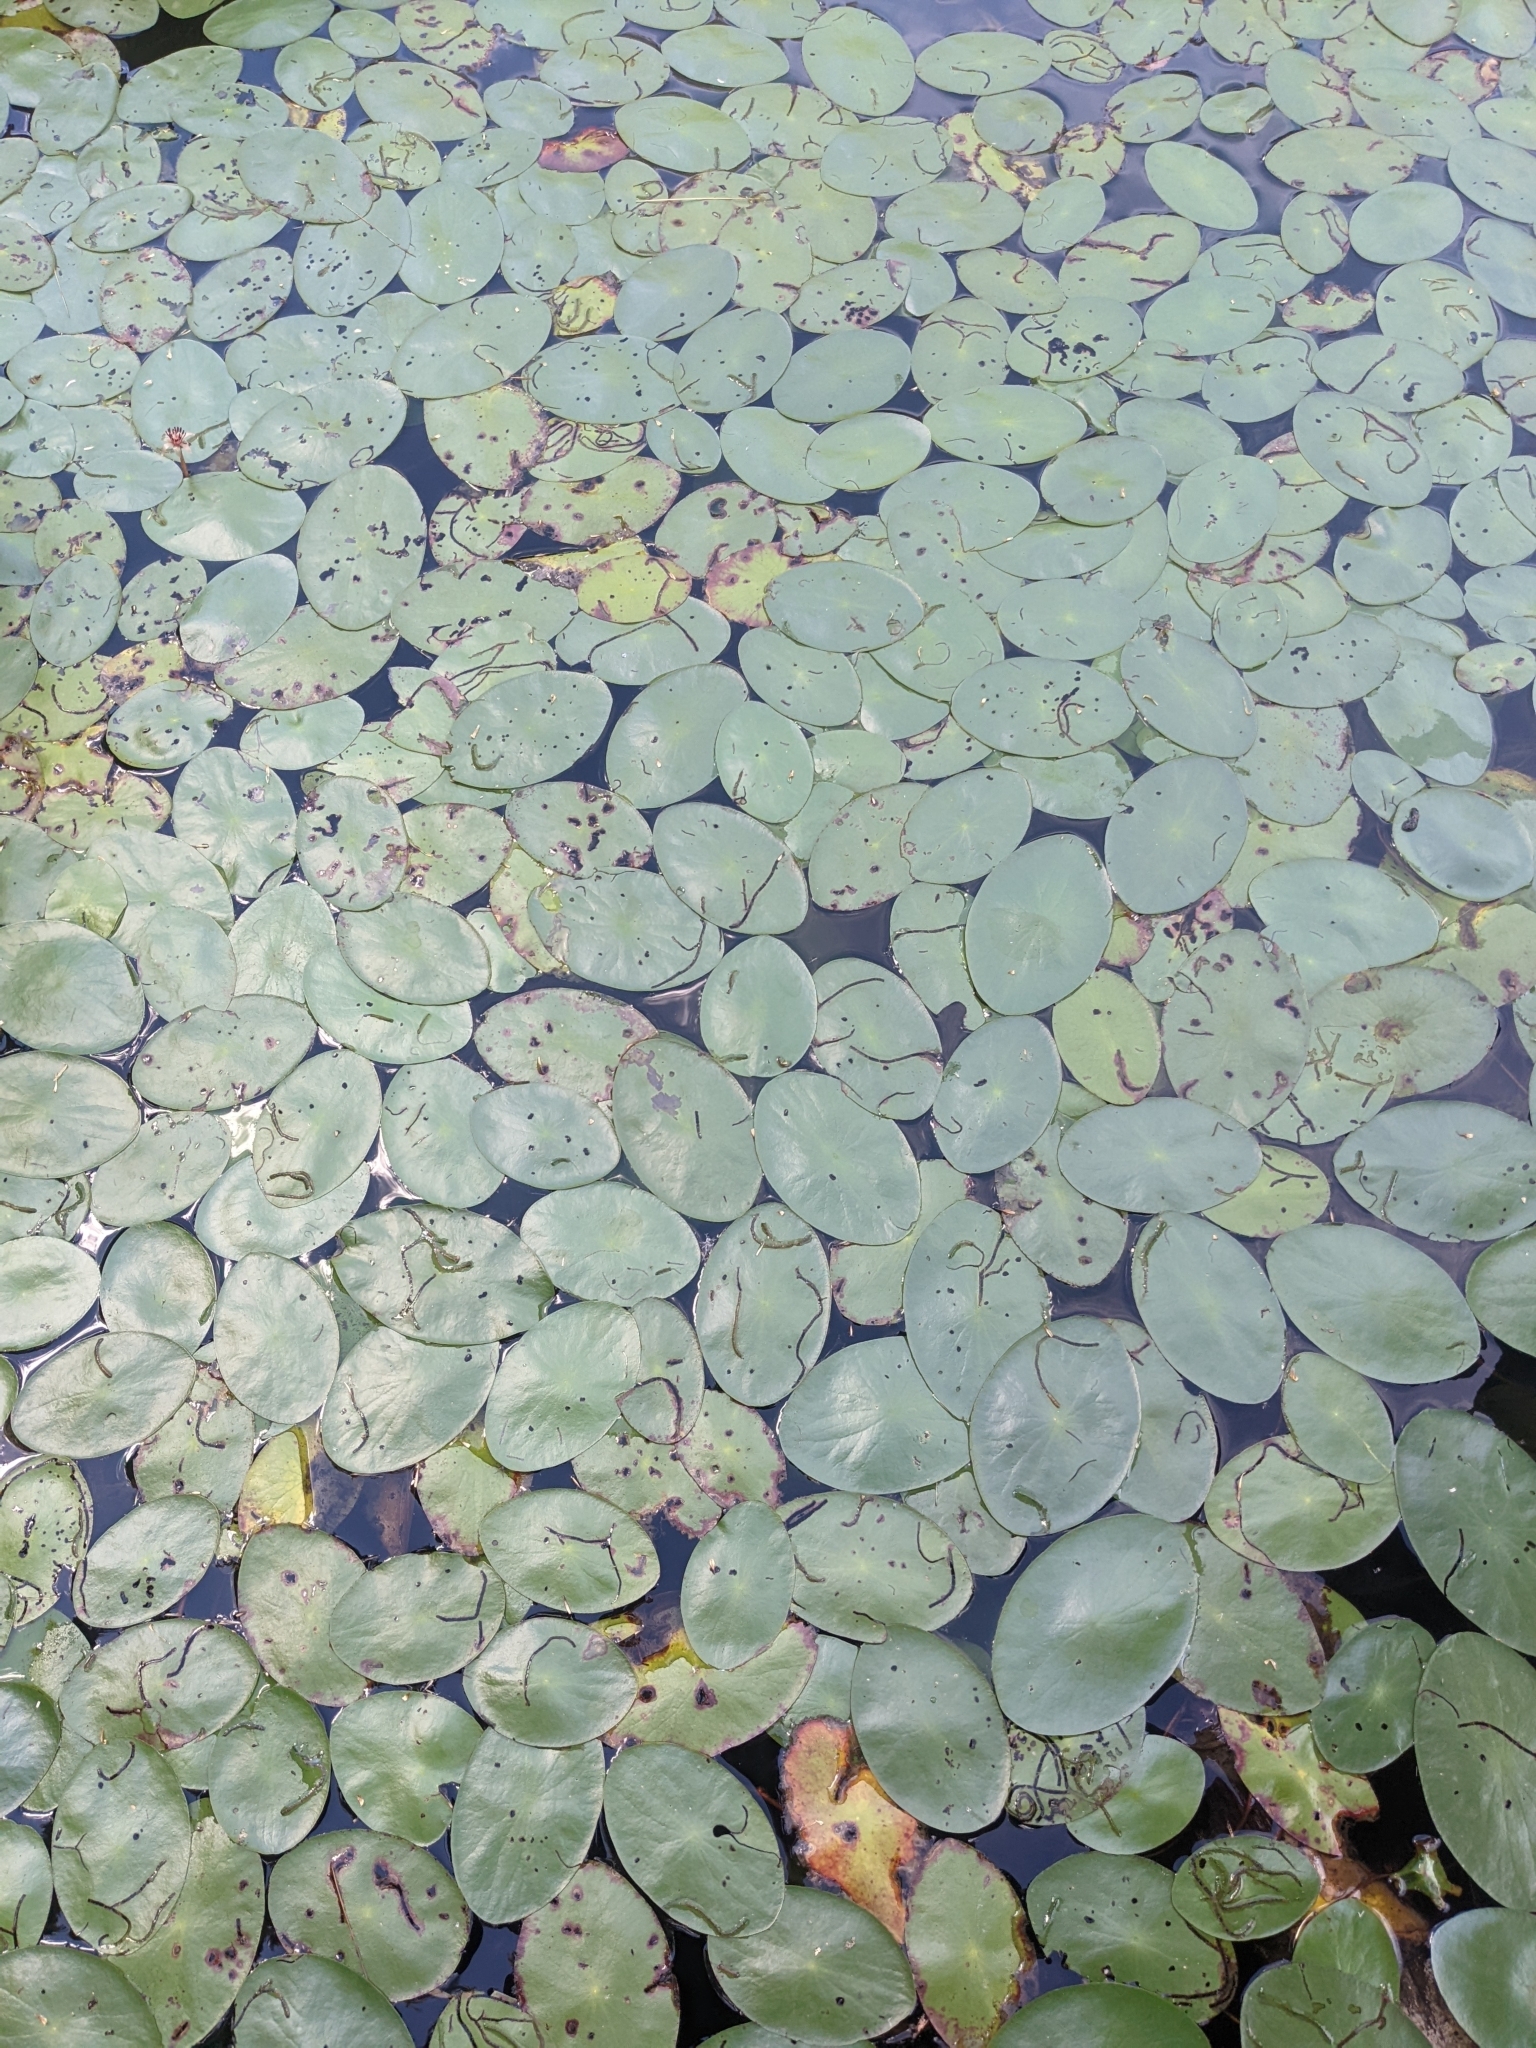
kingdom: Plantae
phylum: Tracheophyta
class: Magnoliopsida
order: Nymphaeales
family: Cabombaceae
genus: Brasenia
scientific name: Brasenia schreberi
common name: Water-shield
